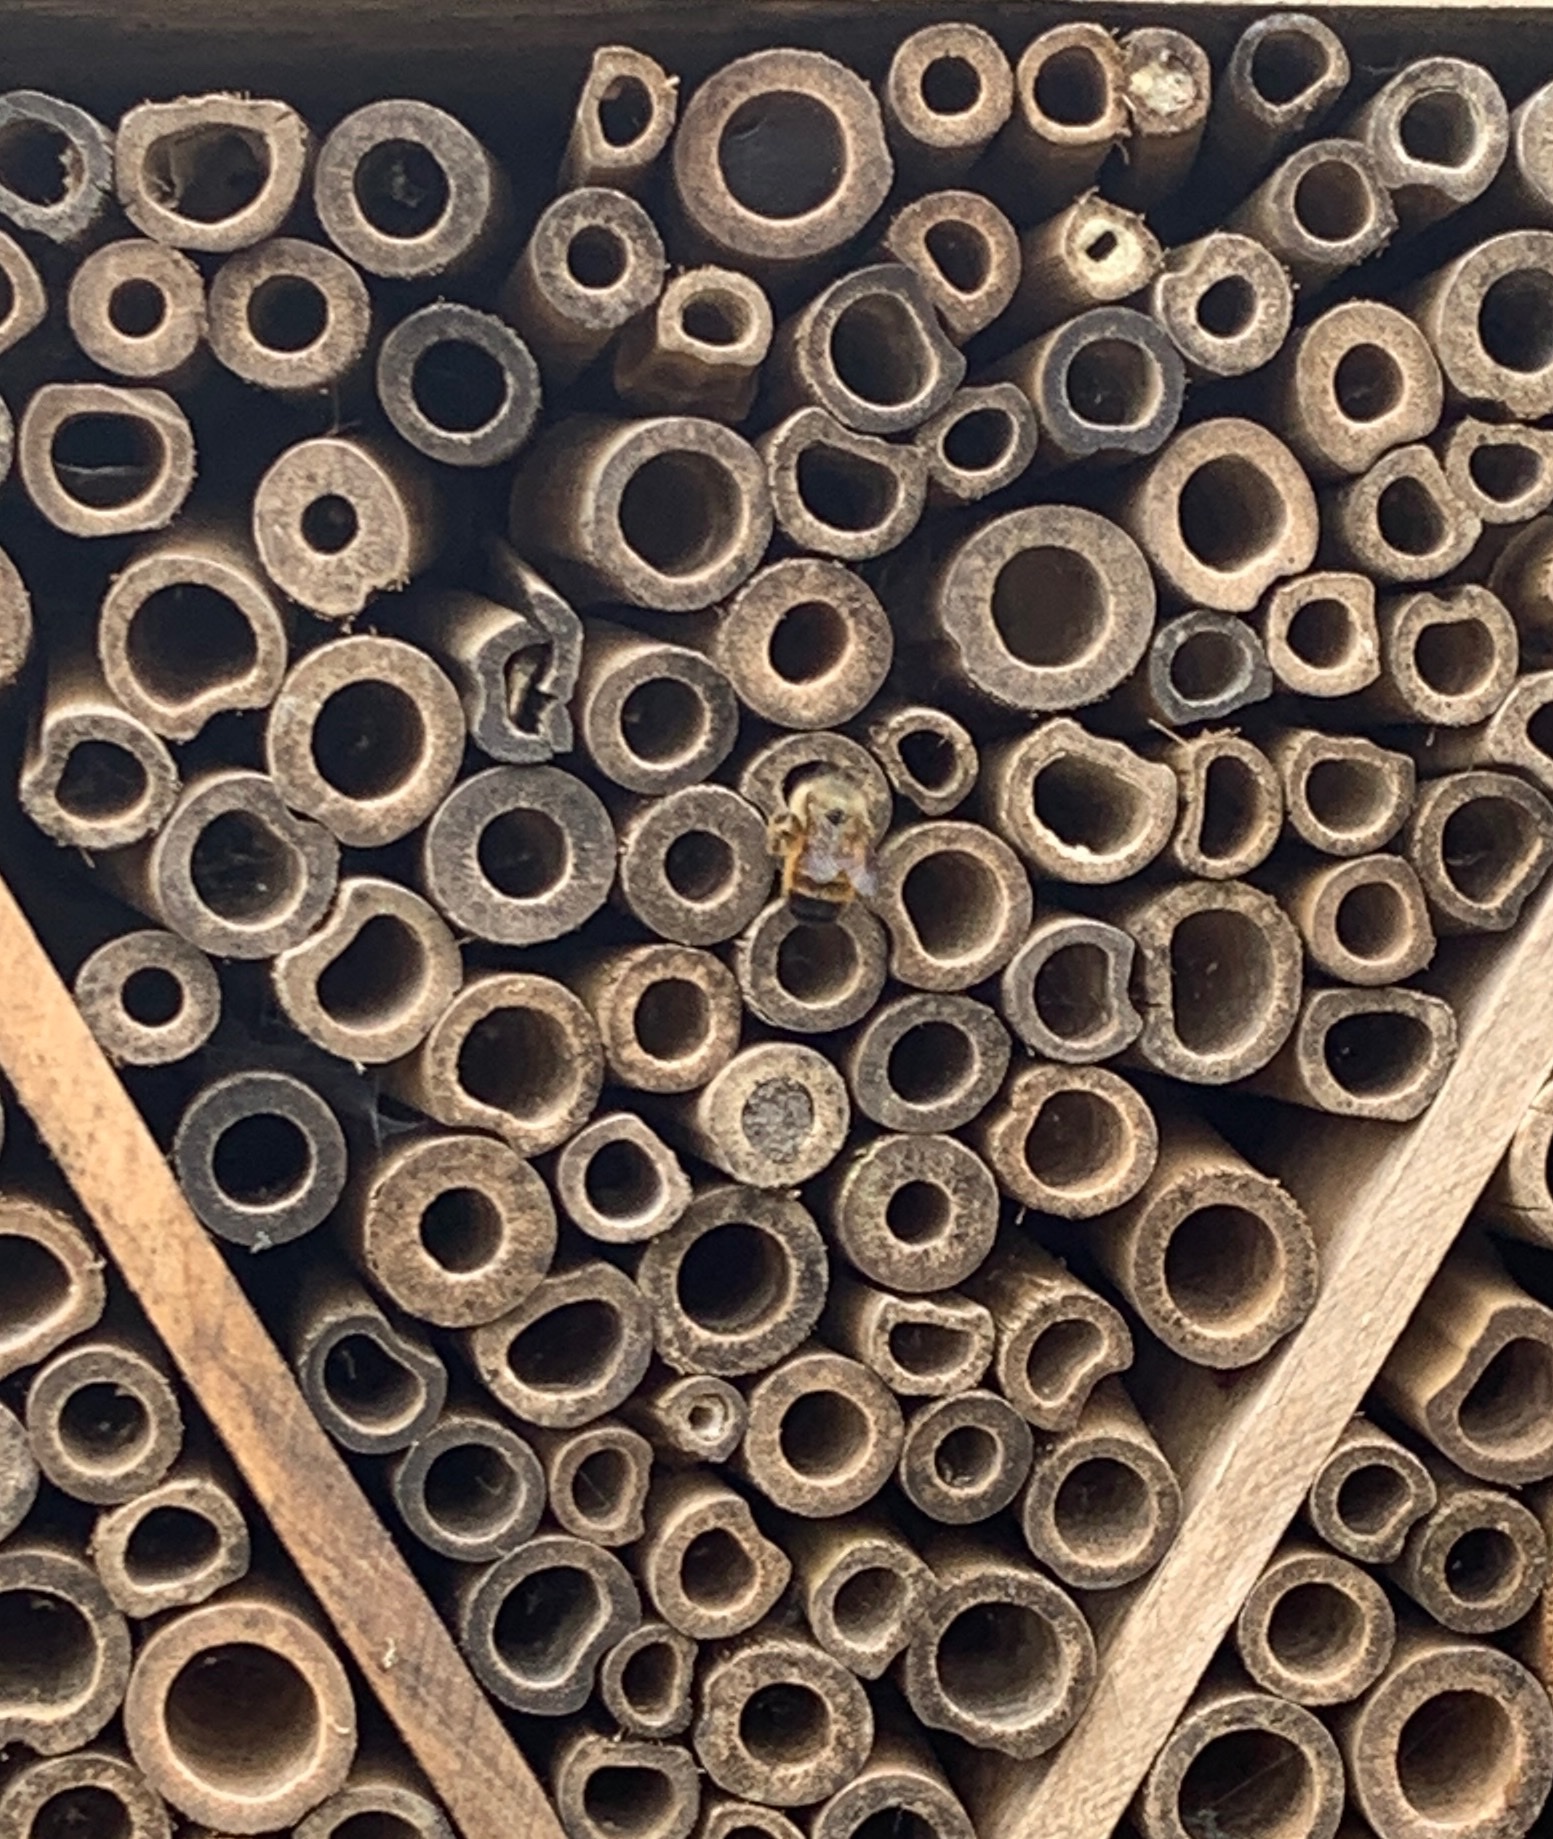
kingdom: Animalia
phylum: Arthropoda
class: Insecta
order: Hymenoptera
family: Megachilidae
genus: Osmia
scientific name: Osmia bicornis
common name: Red mason bee
